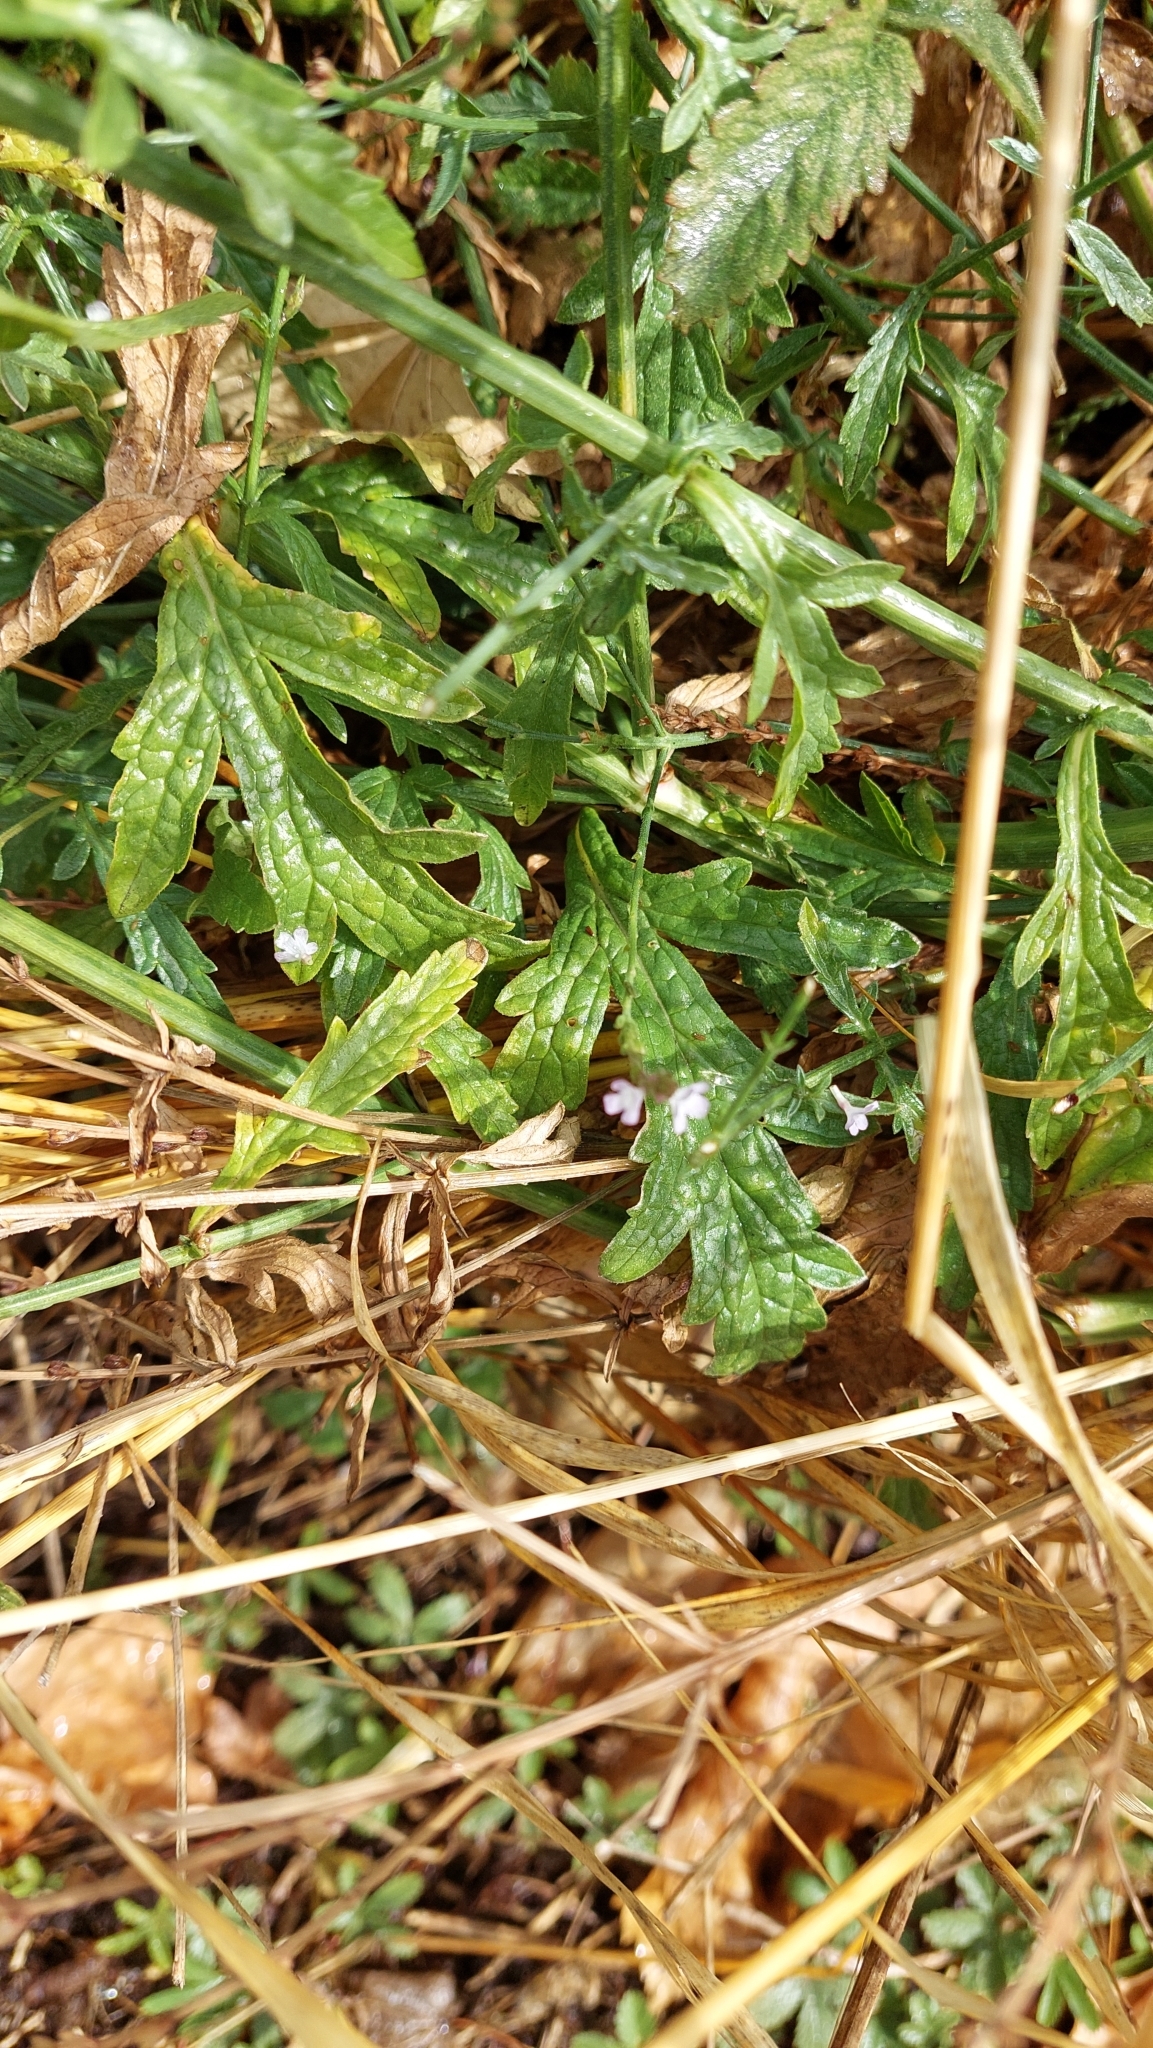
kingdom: Plantae
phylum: Tracheophyta
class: Magnoliopsida
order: Lamiales
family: Verbenaceae
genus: Verbena
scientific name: Verbena officinalis
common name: Vervain
